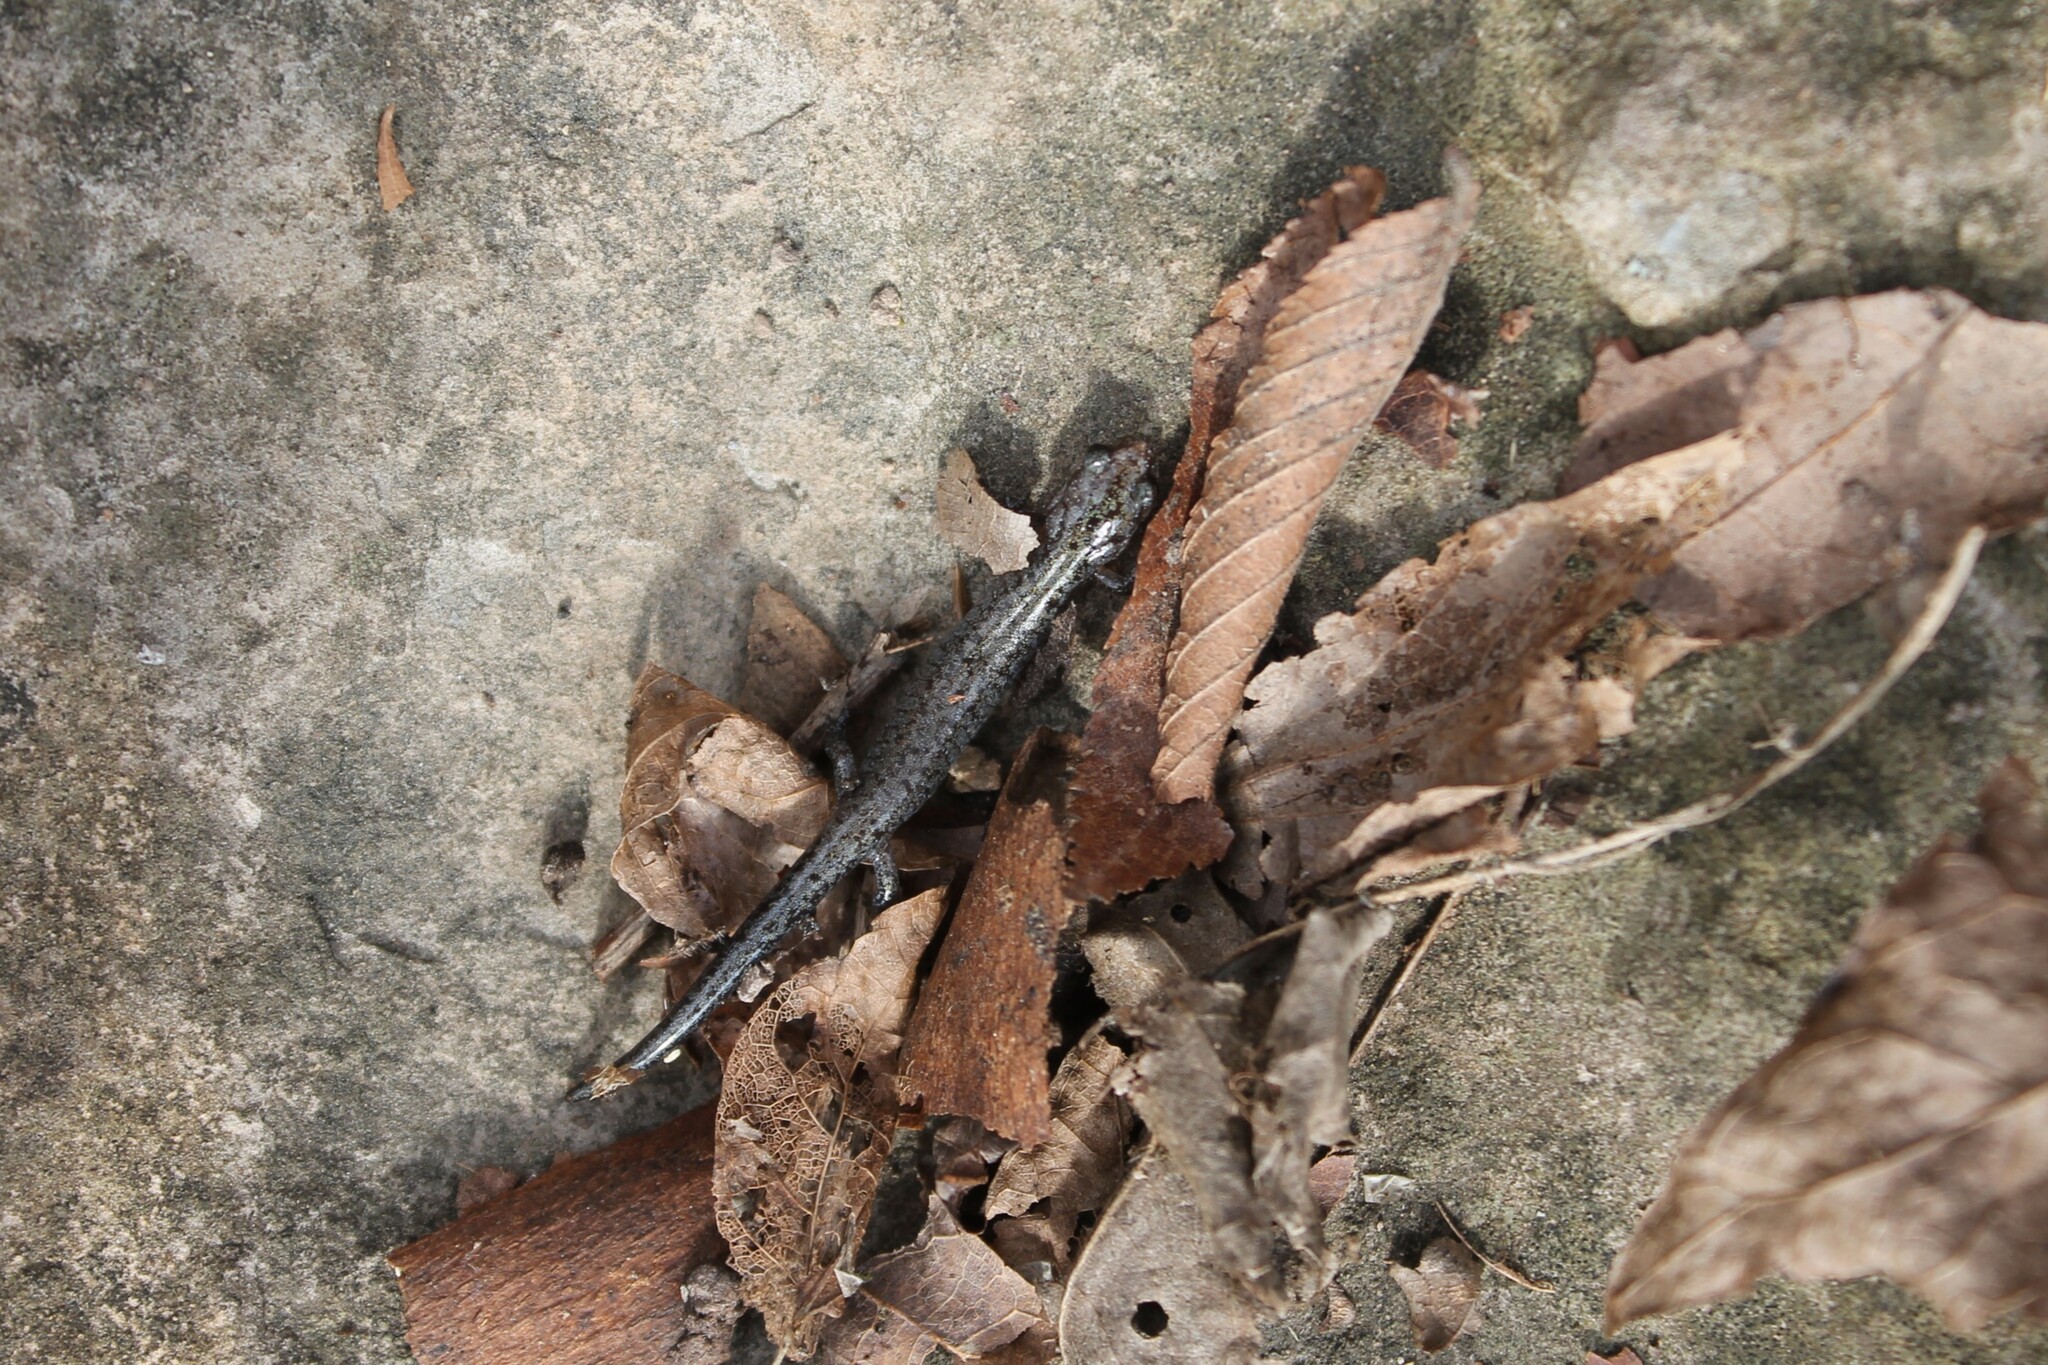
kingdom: Animalia
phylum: Chordata
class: Amphibia
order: Caudata
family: Plethodontidae
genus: Plethodon
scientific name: Plethodon dorsalis
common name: Northern zigzag salamander
